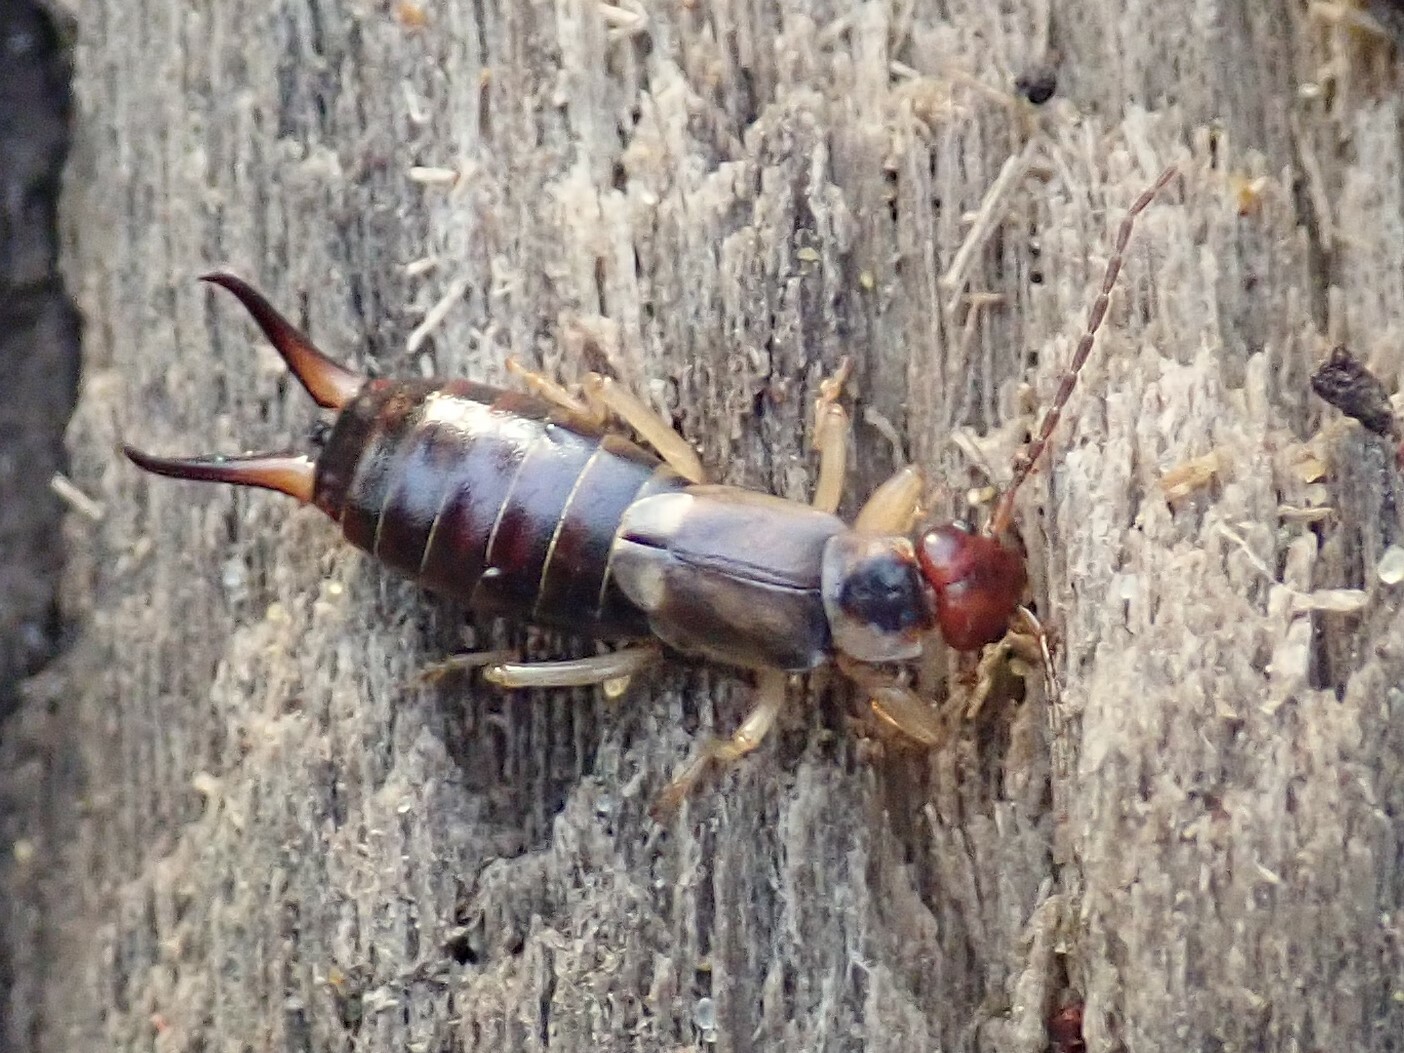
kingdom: Animalia
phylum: Arthropoda
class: Insecta
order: Dermaptera
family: Forficulidae
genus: Forficula
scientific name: Forficula
